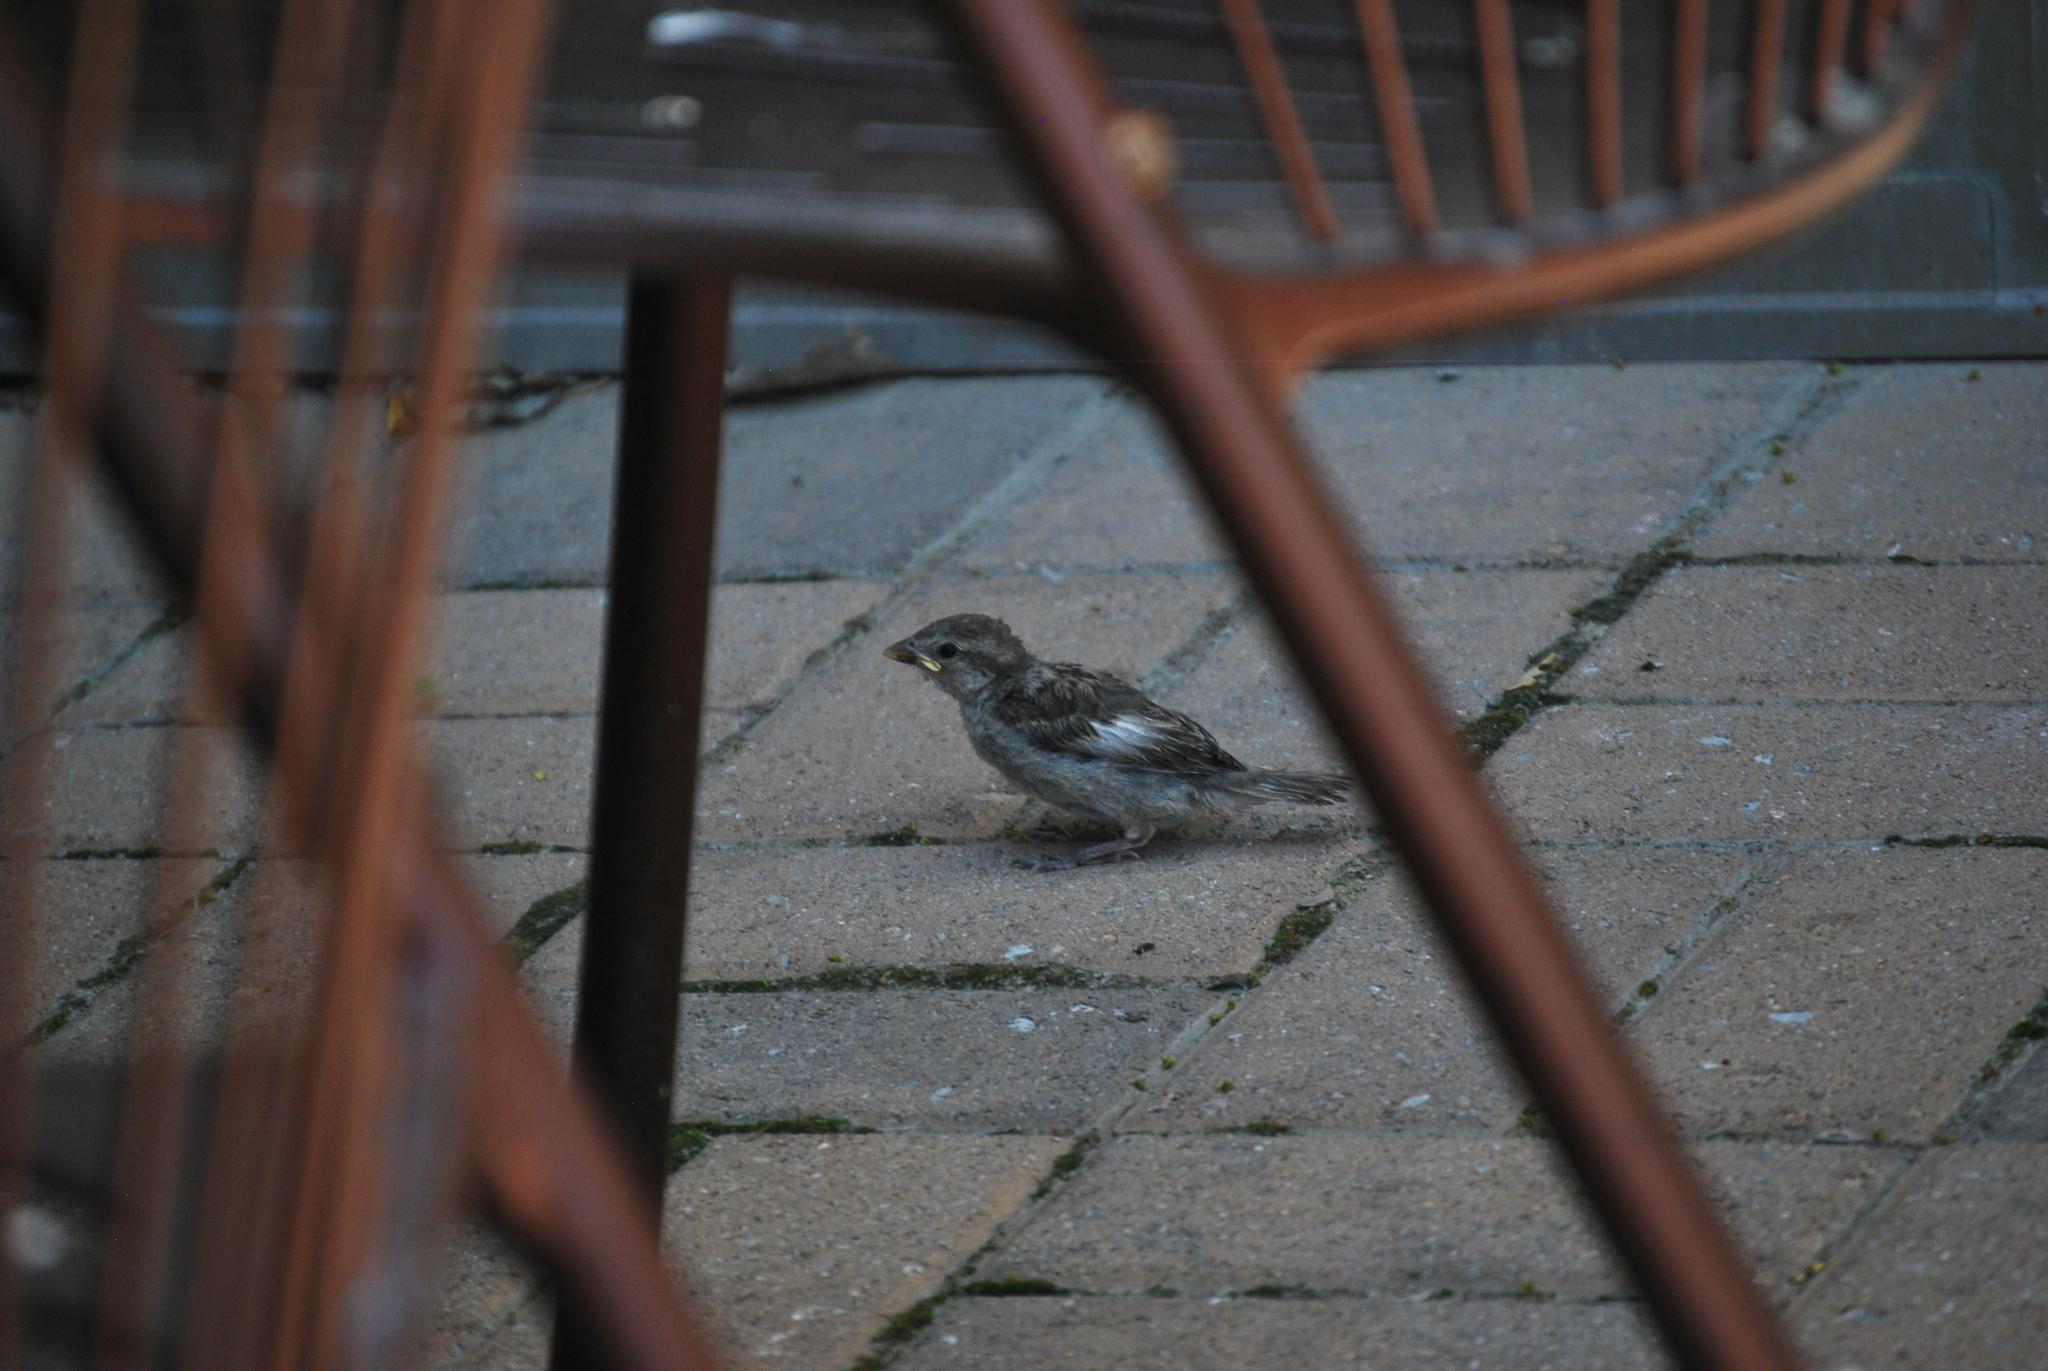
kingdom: Animalia
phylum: Chordata
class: Aves
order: Passeriformes
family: Passeridae
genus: Passer
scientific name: Passer domesticus
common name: House sparrow
